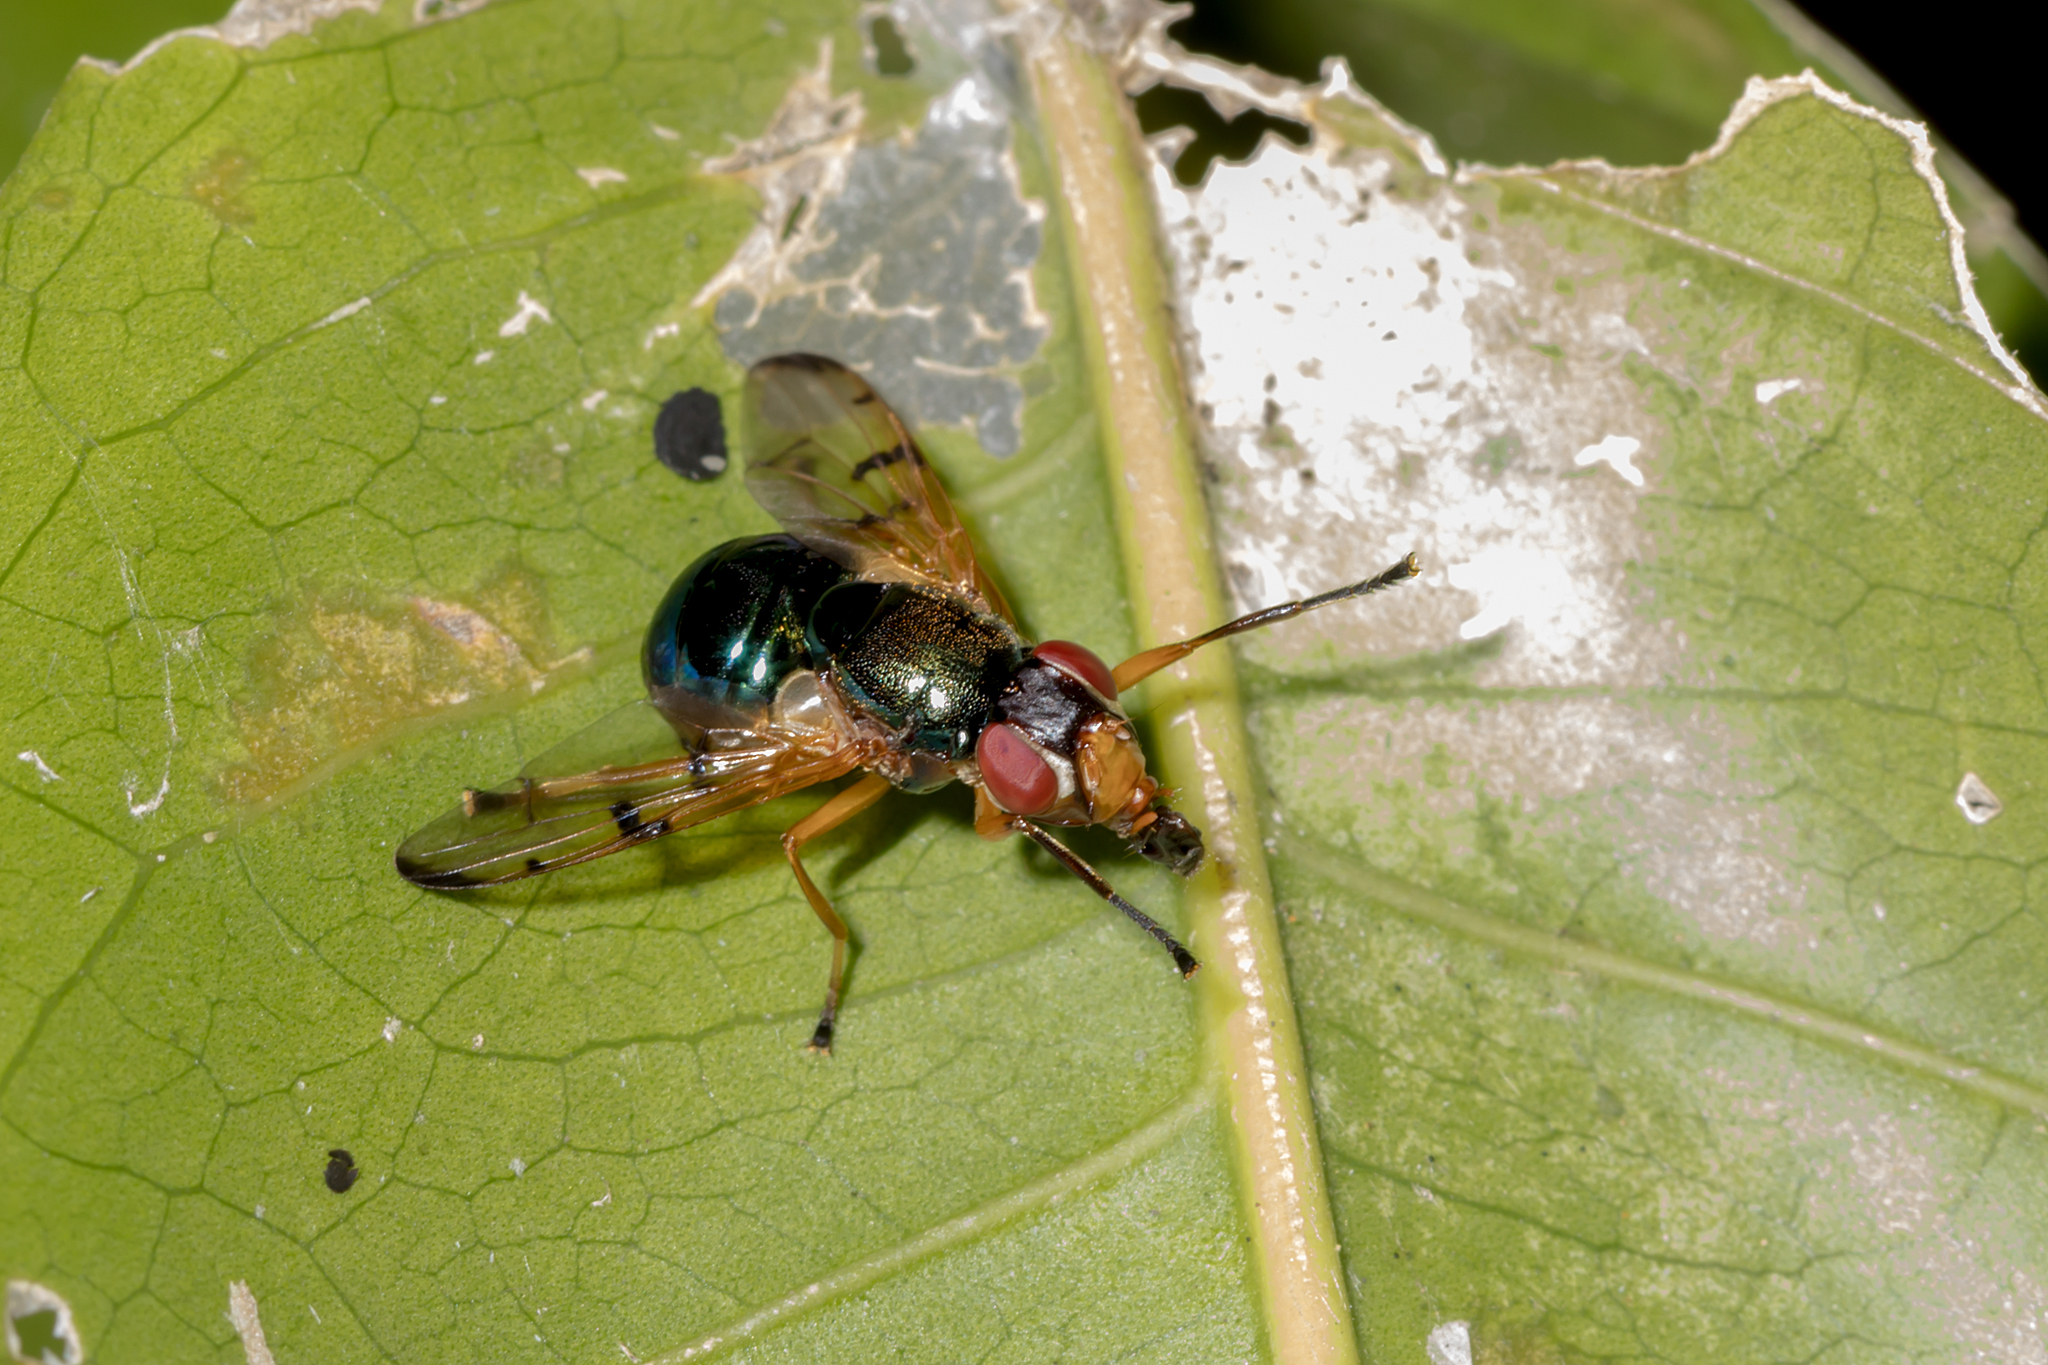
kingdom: Animalia
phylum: Arthropoda
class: Insecta
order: Diptera
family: Platystomatidae
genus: Lamprogaster
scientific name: Lamprogaster imperialis
